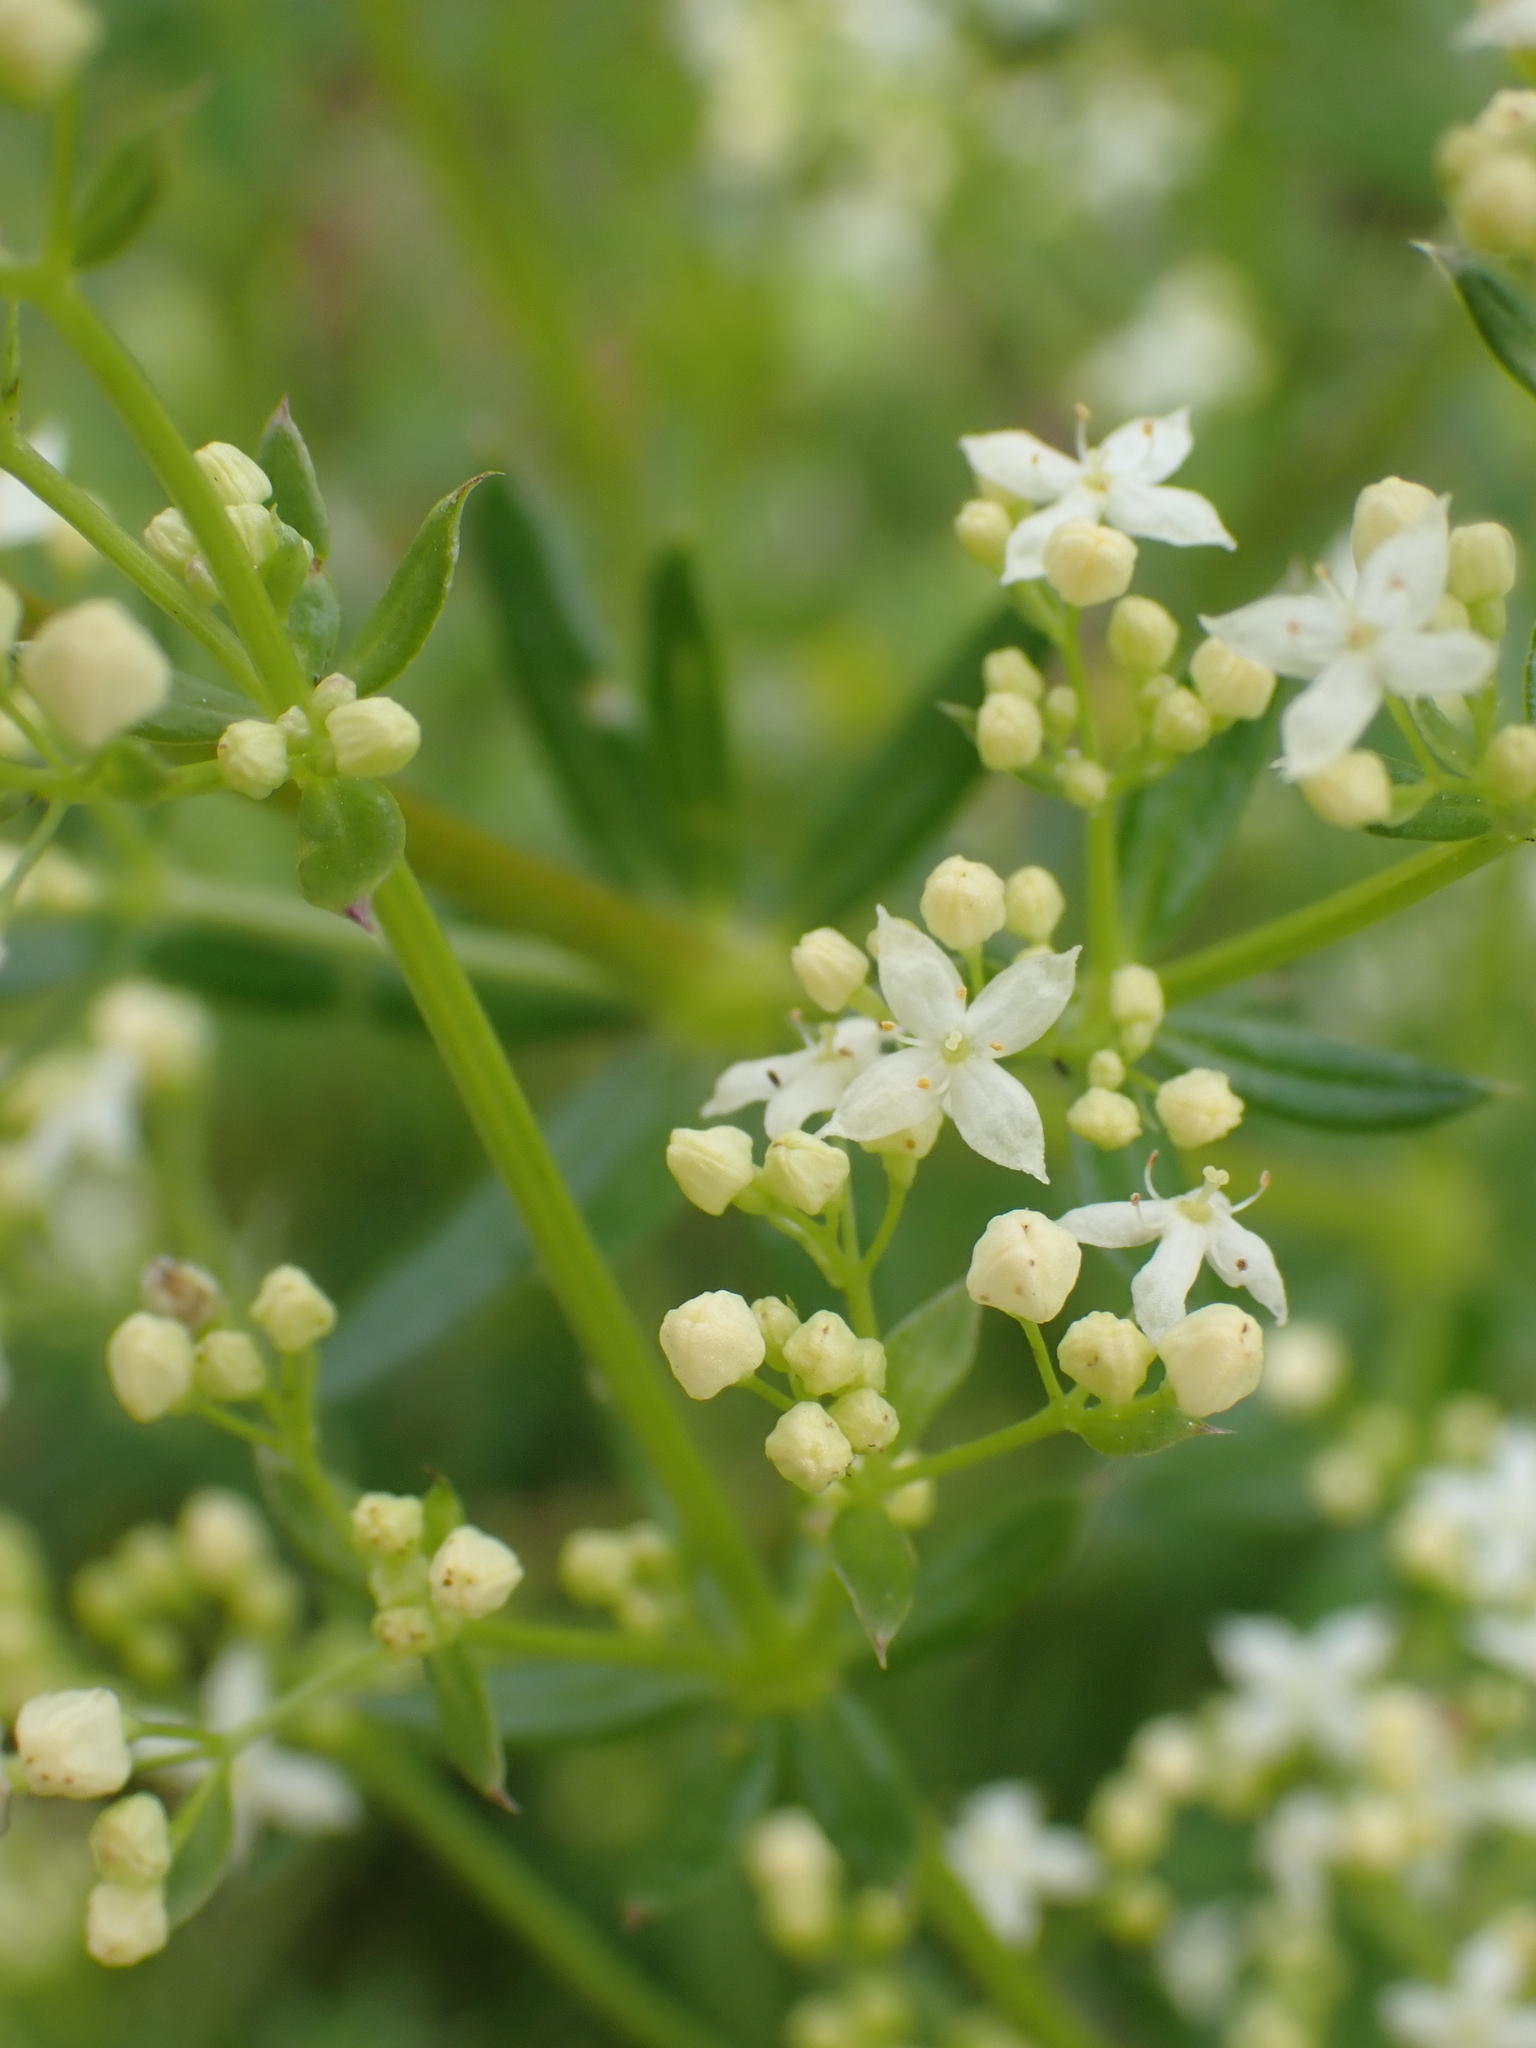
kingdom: Plantae
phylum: Tracheophyta
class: Magnoliopsida
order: Gentianales
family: Rubiaceae
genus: Galium
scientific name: Galium album
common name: White bedstraw
